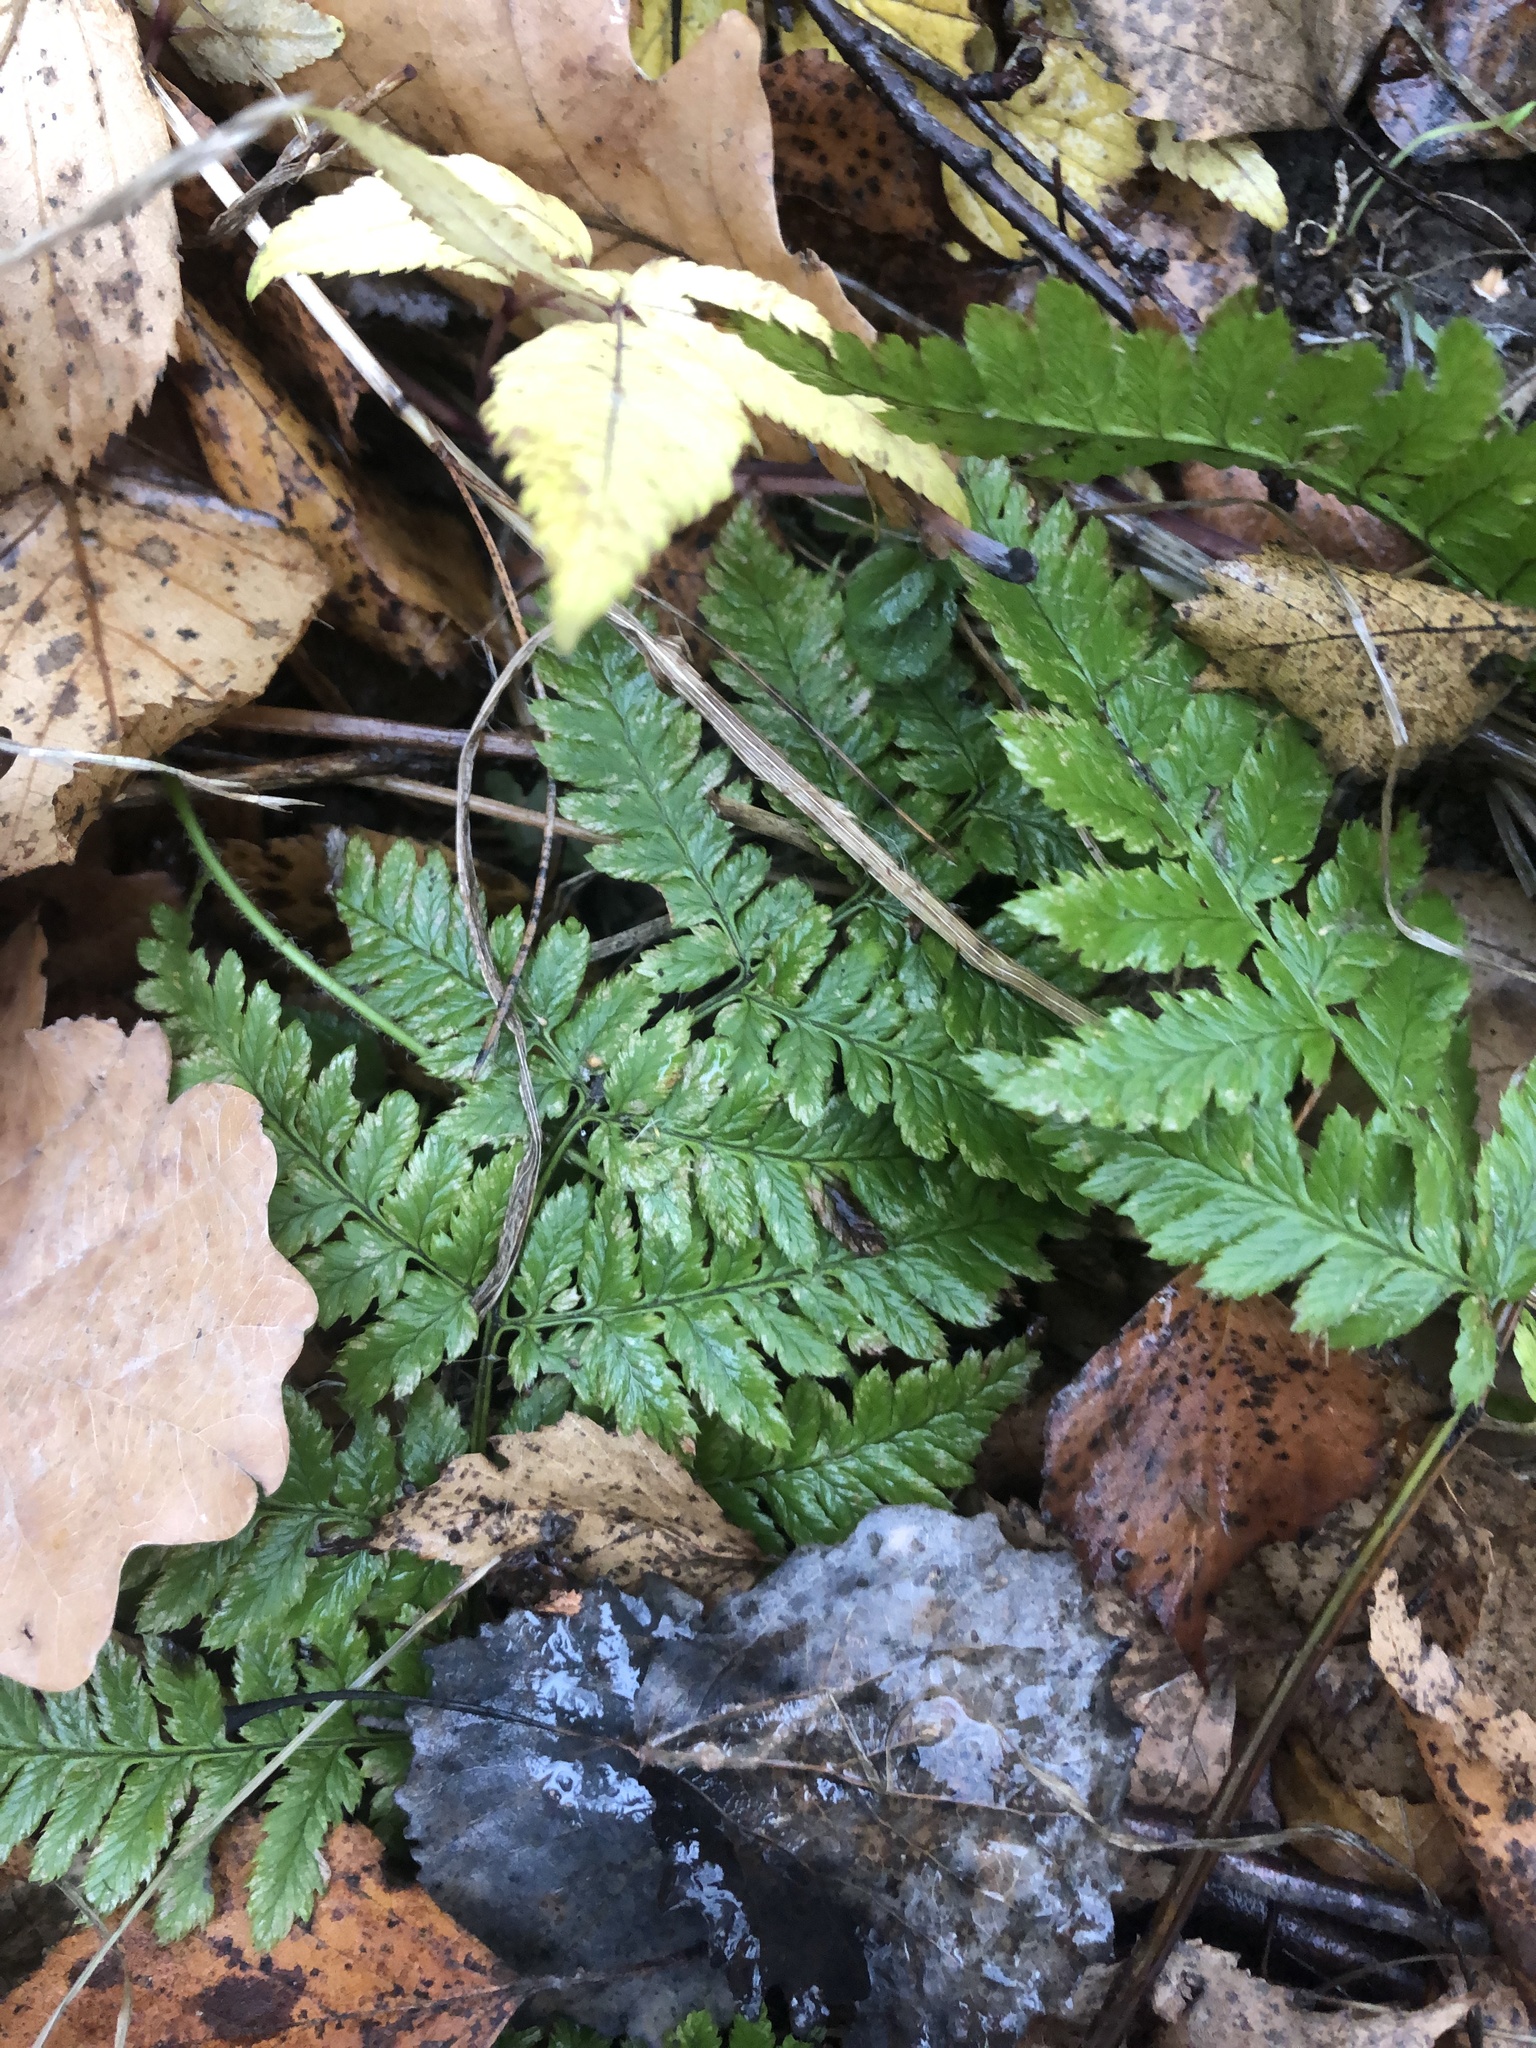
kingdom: Plantae
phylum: Tracheophyta
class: Polypodiopsida
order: Polypodiales
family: Dryopteridaceae
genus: Dryopteris
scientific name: Dryopteris carthusiana
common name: Narrow buckler-fern
